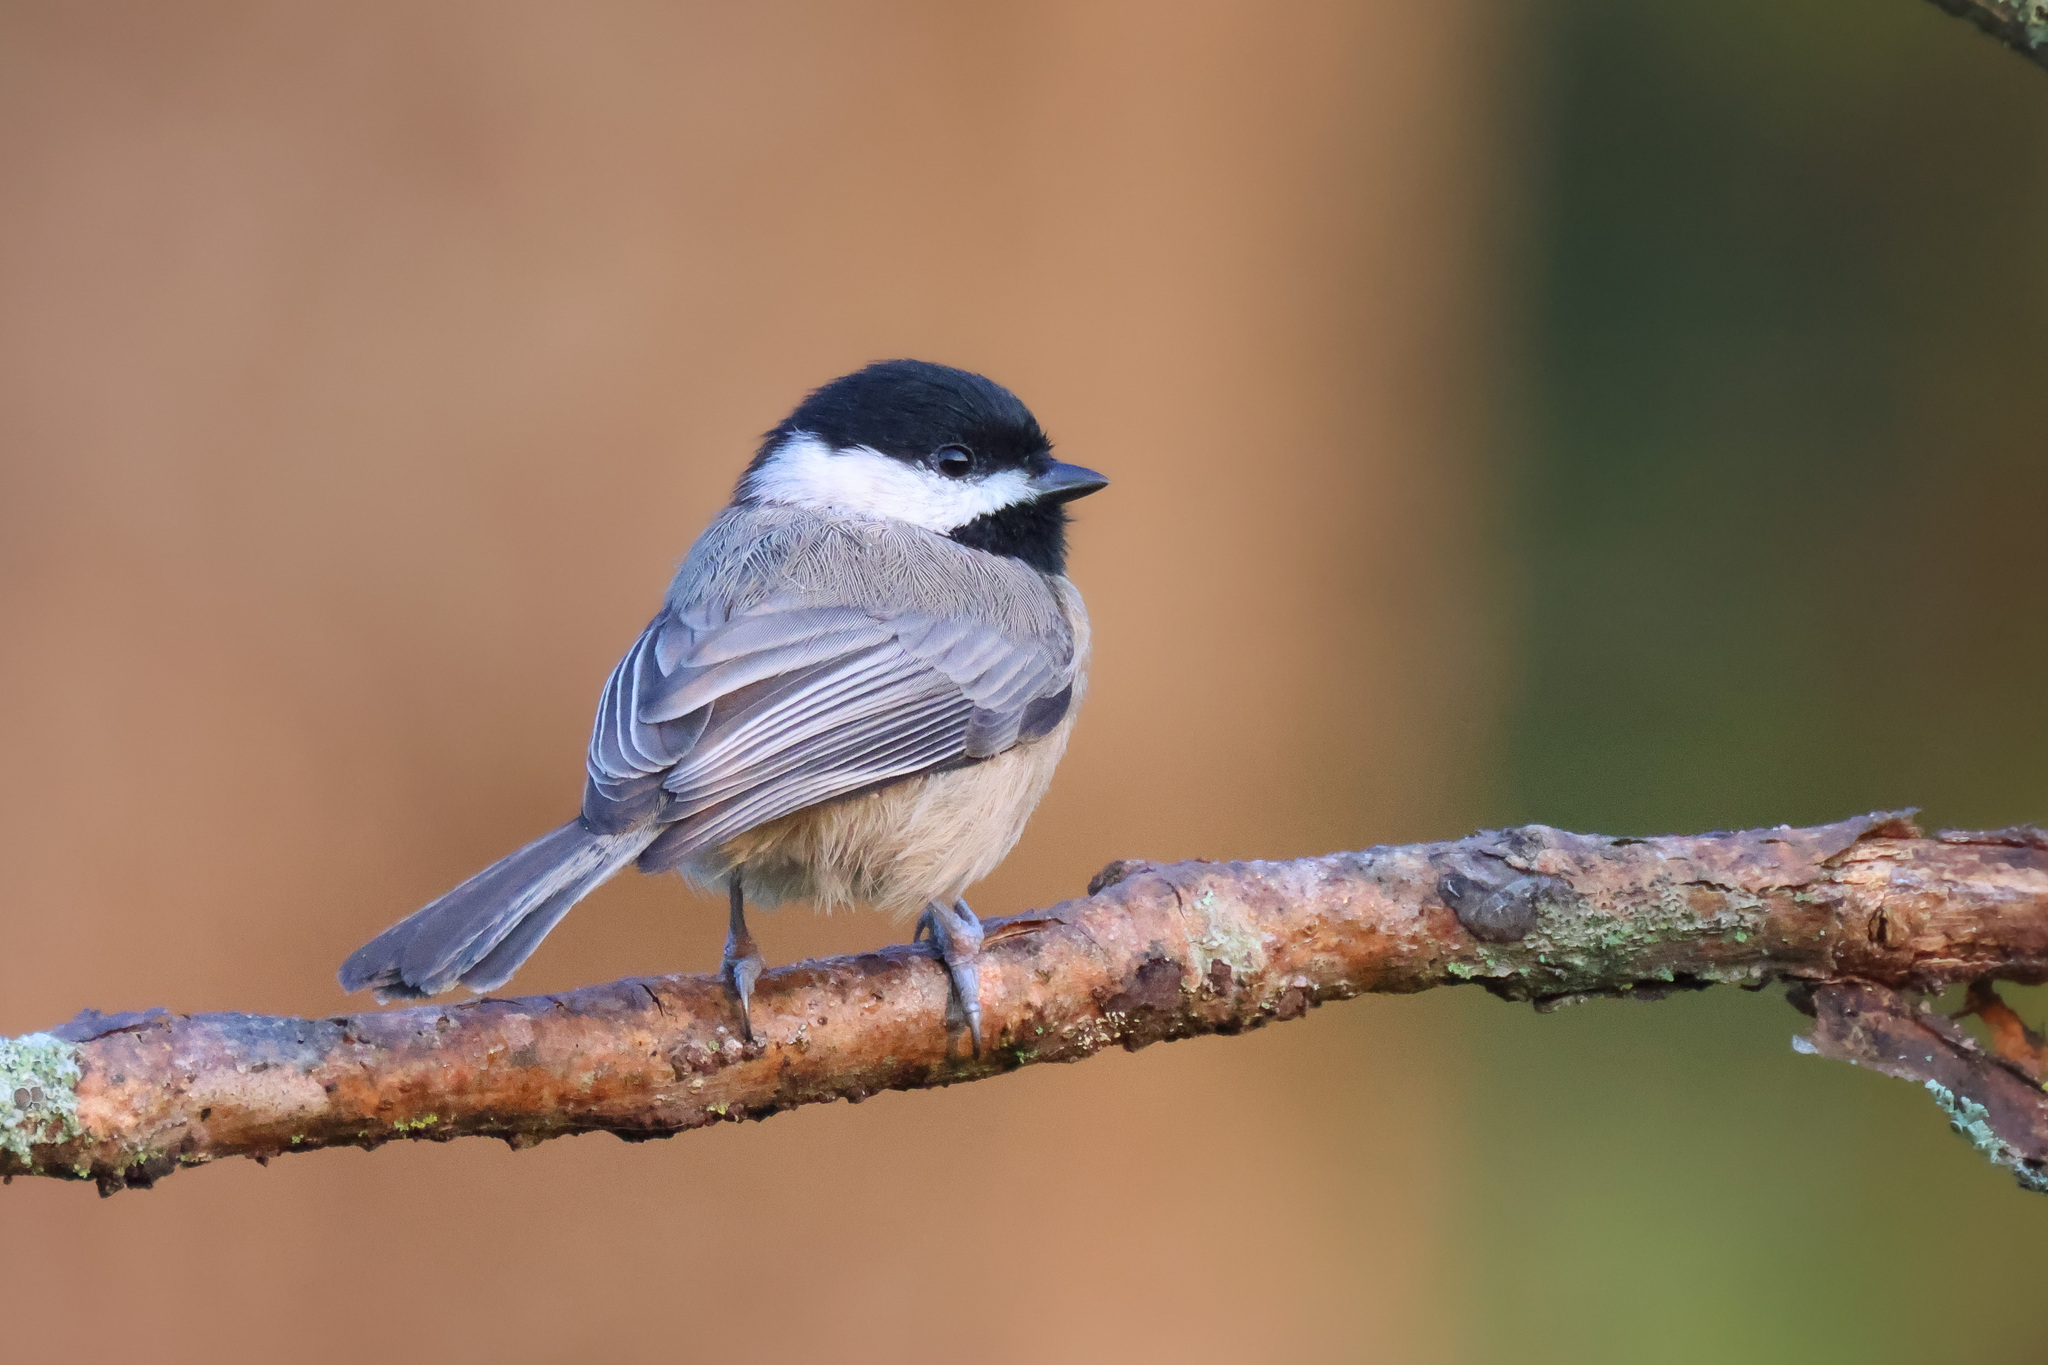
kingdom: Animalia
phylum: Chordata
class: Aves
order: Passeriformes
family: Paridae
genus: Poecile
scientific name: Poecile carolinensis
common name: Carolina chickadee
